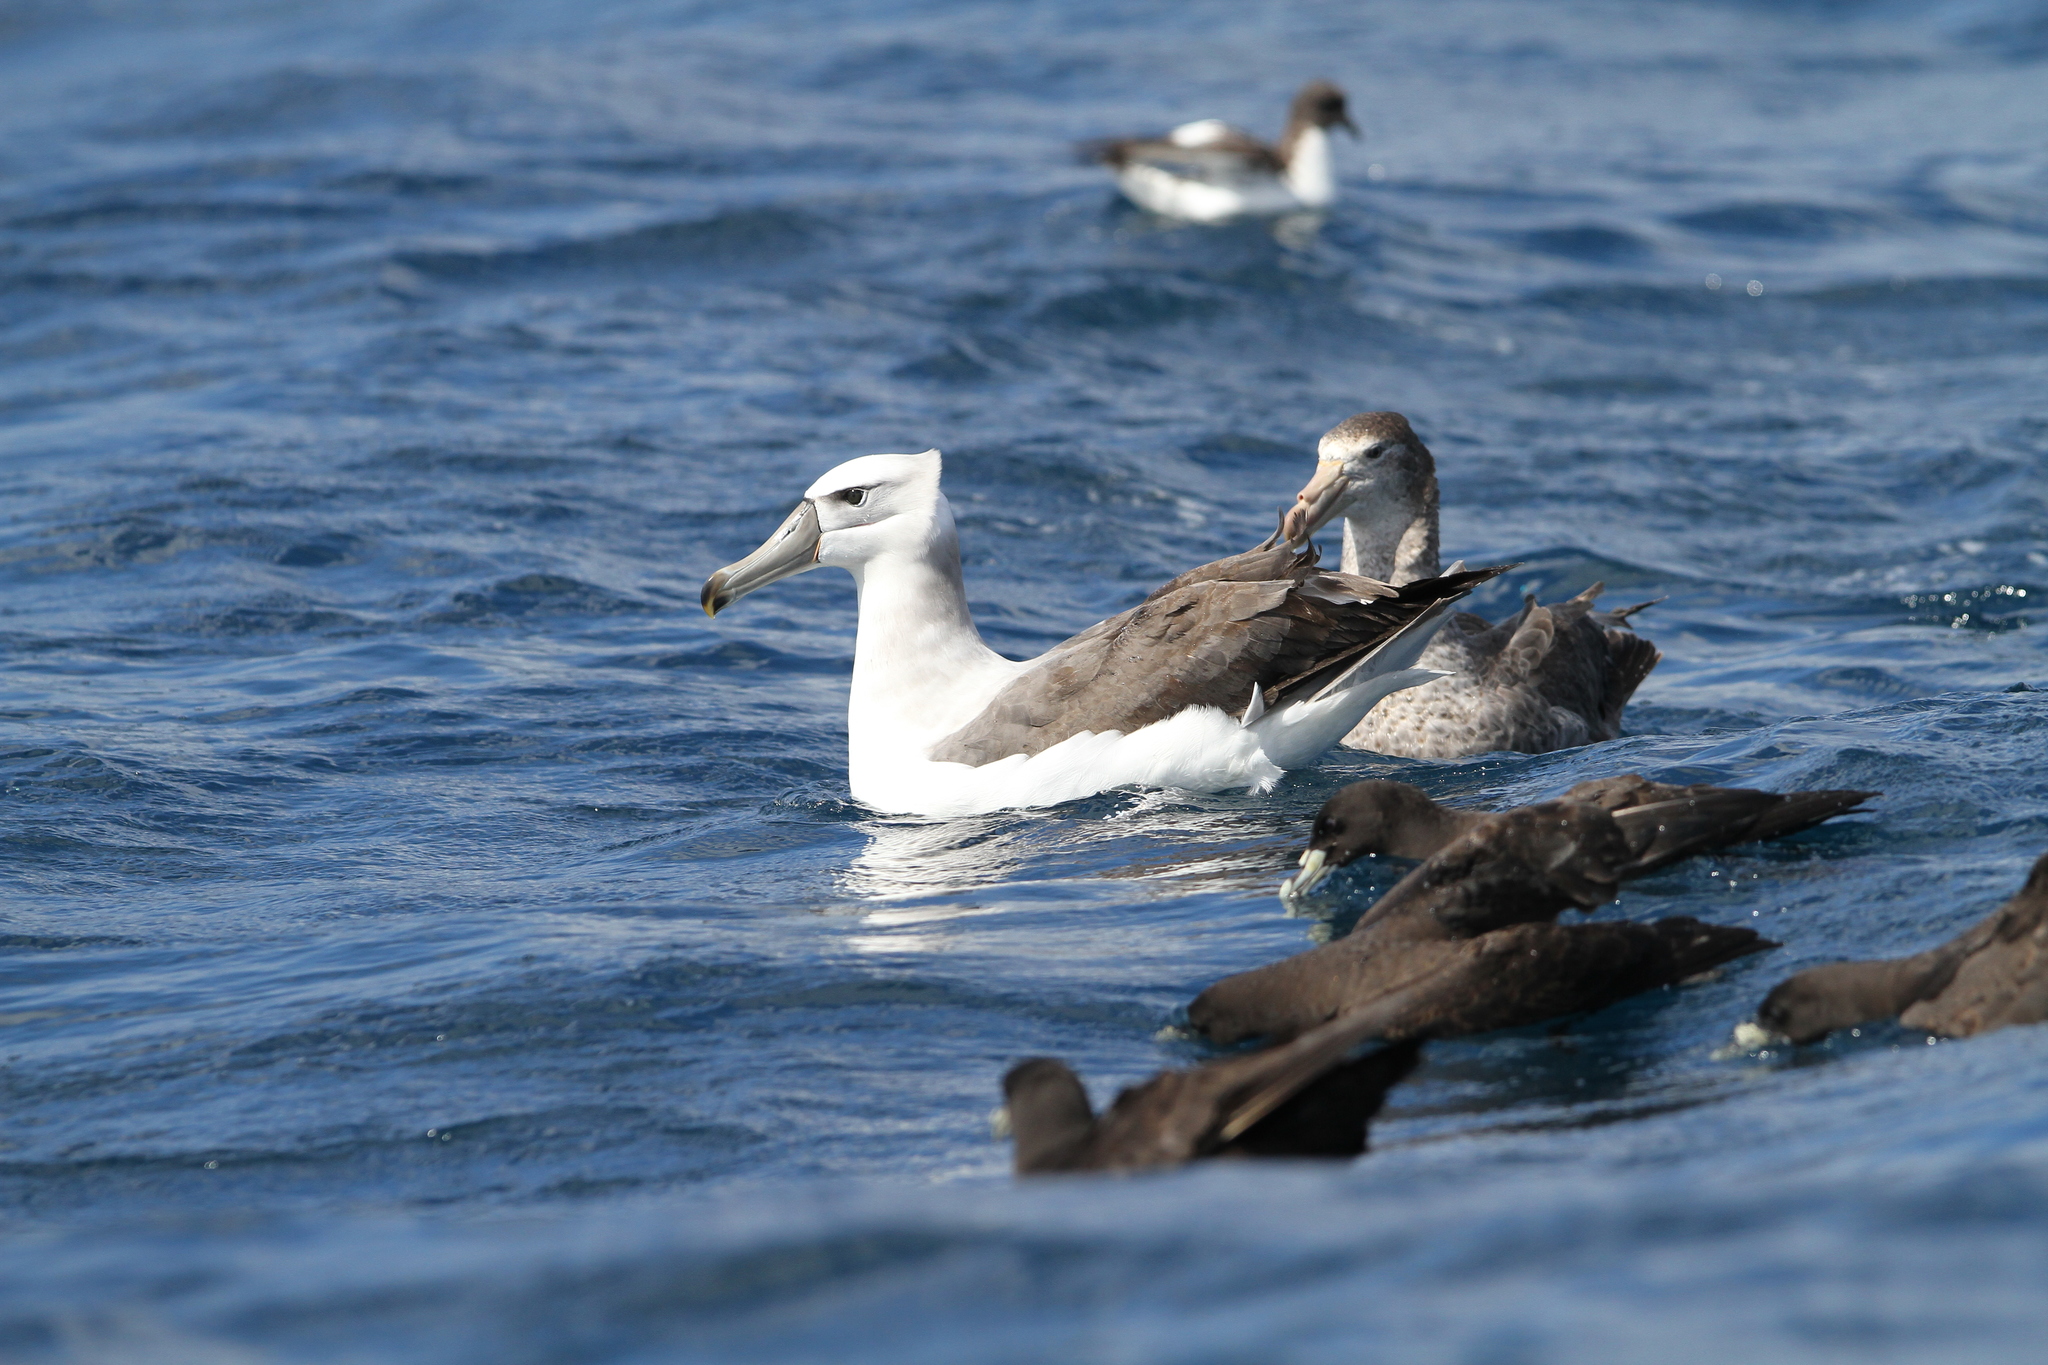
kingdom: Animalia
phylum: Chordata
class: Aves
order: Procellariiformes
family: Diomedeidae
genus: Thalassarche
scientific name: Thalassarche cauta
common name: Shy albatross
